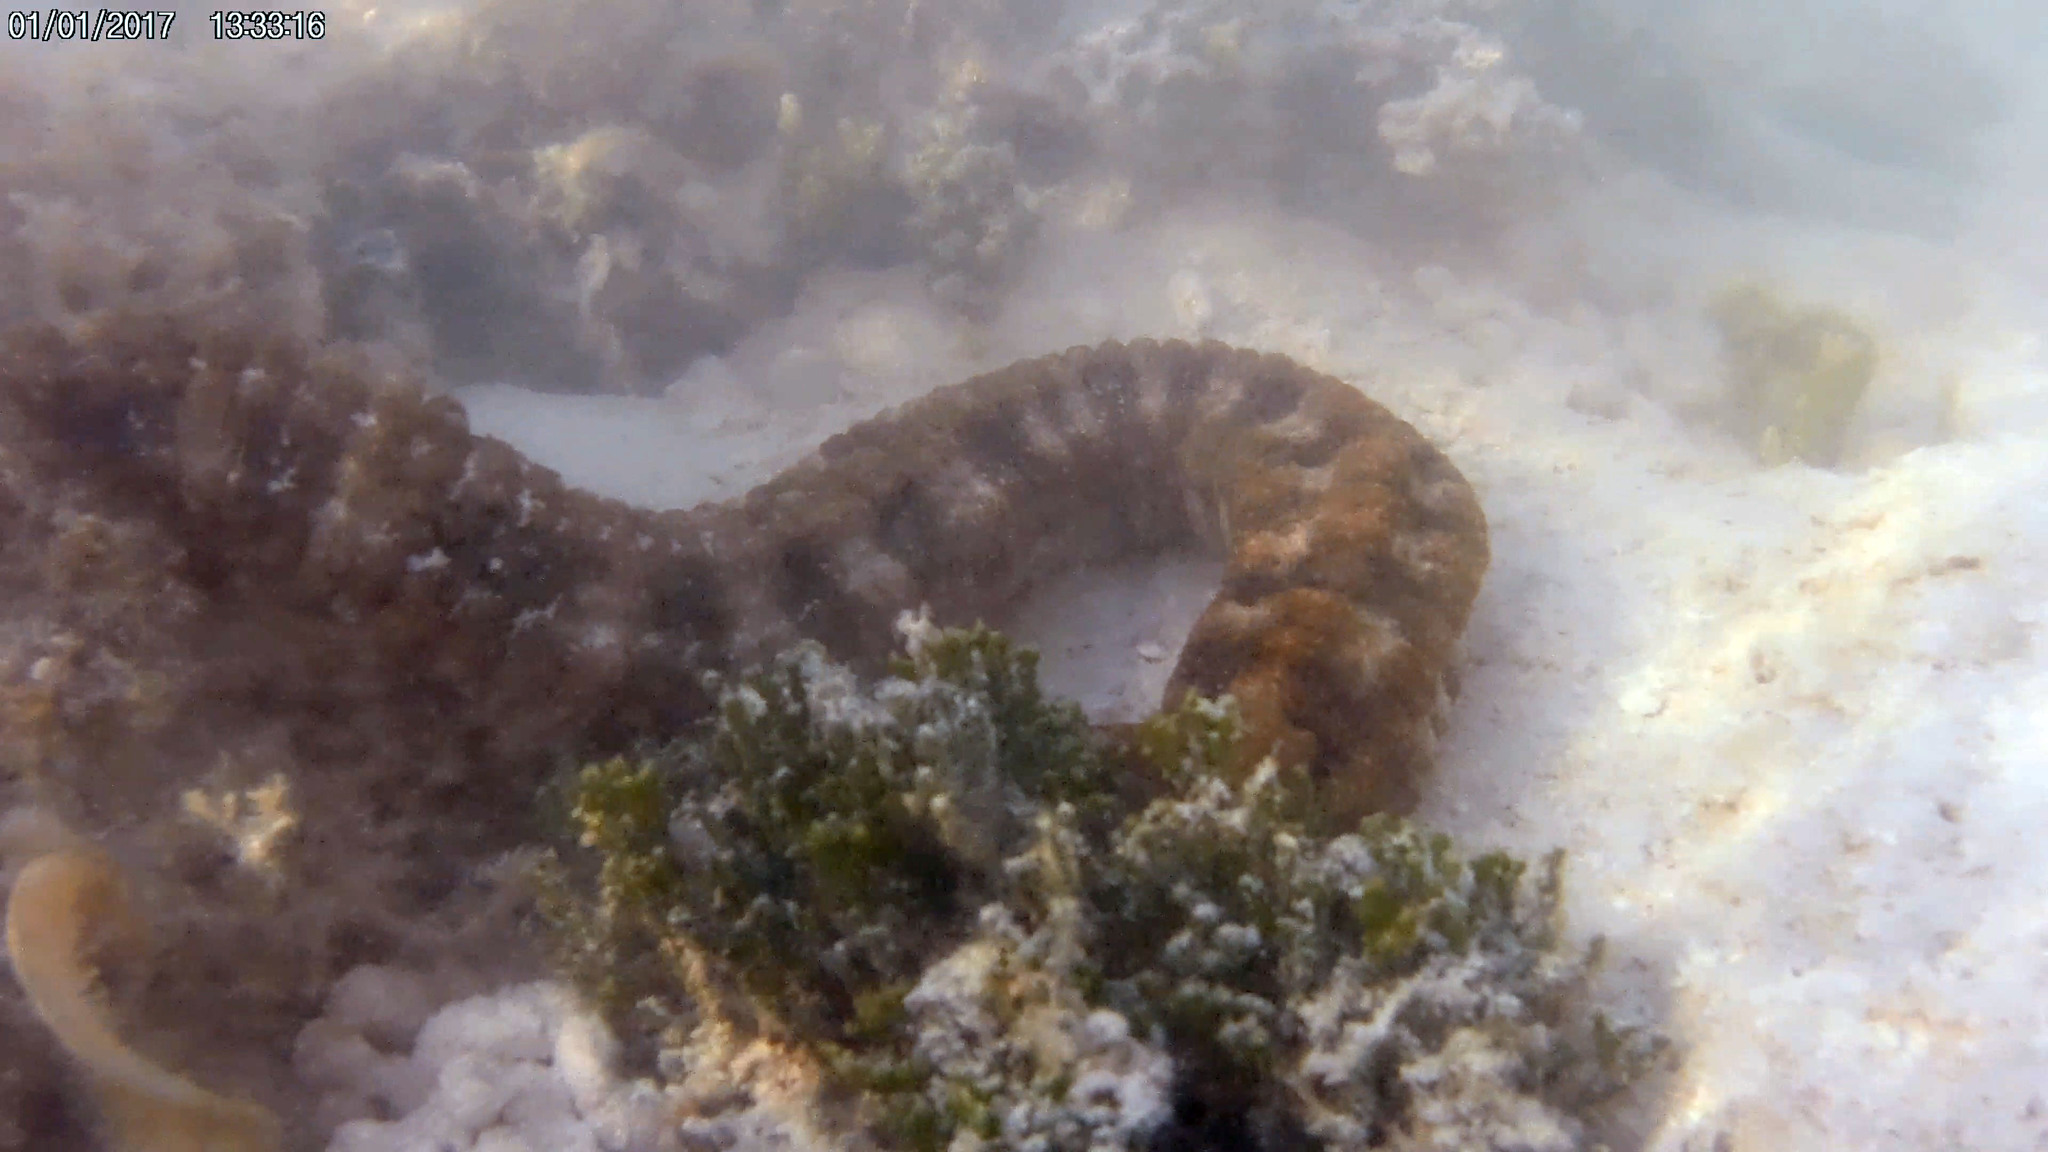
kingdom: Animalia
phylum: Echinodermata
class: Holothuroidea
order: Apodida
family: Synaptidae
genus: Synapta
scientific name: Synapta maculata
